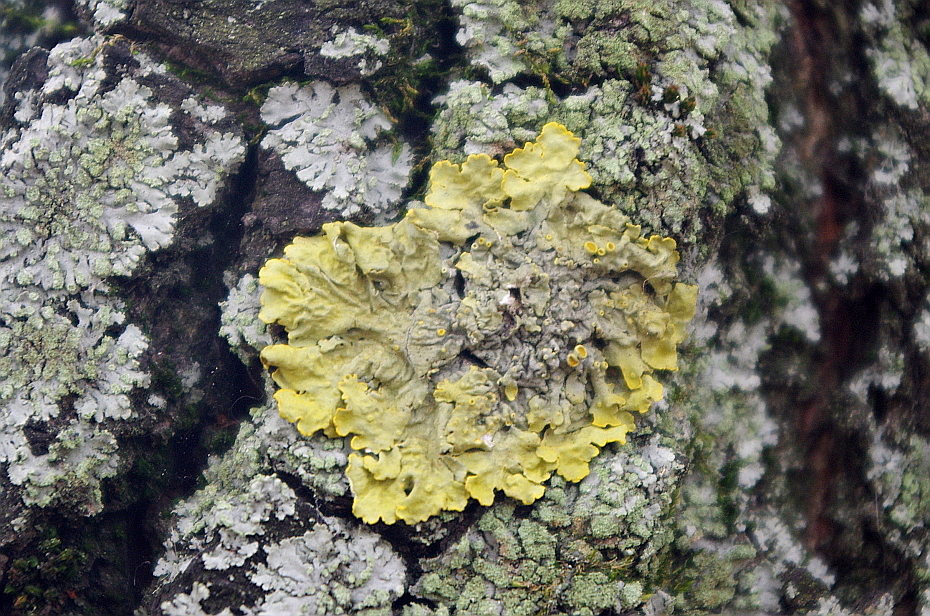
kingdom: Fungi
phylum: Ascomycota
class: Lecanoromycetes
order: Teloschistales
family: Teloschistaceae
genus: Xanthoria
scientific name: Xanthoria parietina
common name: Common orange lichen
